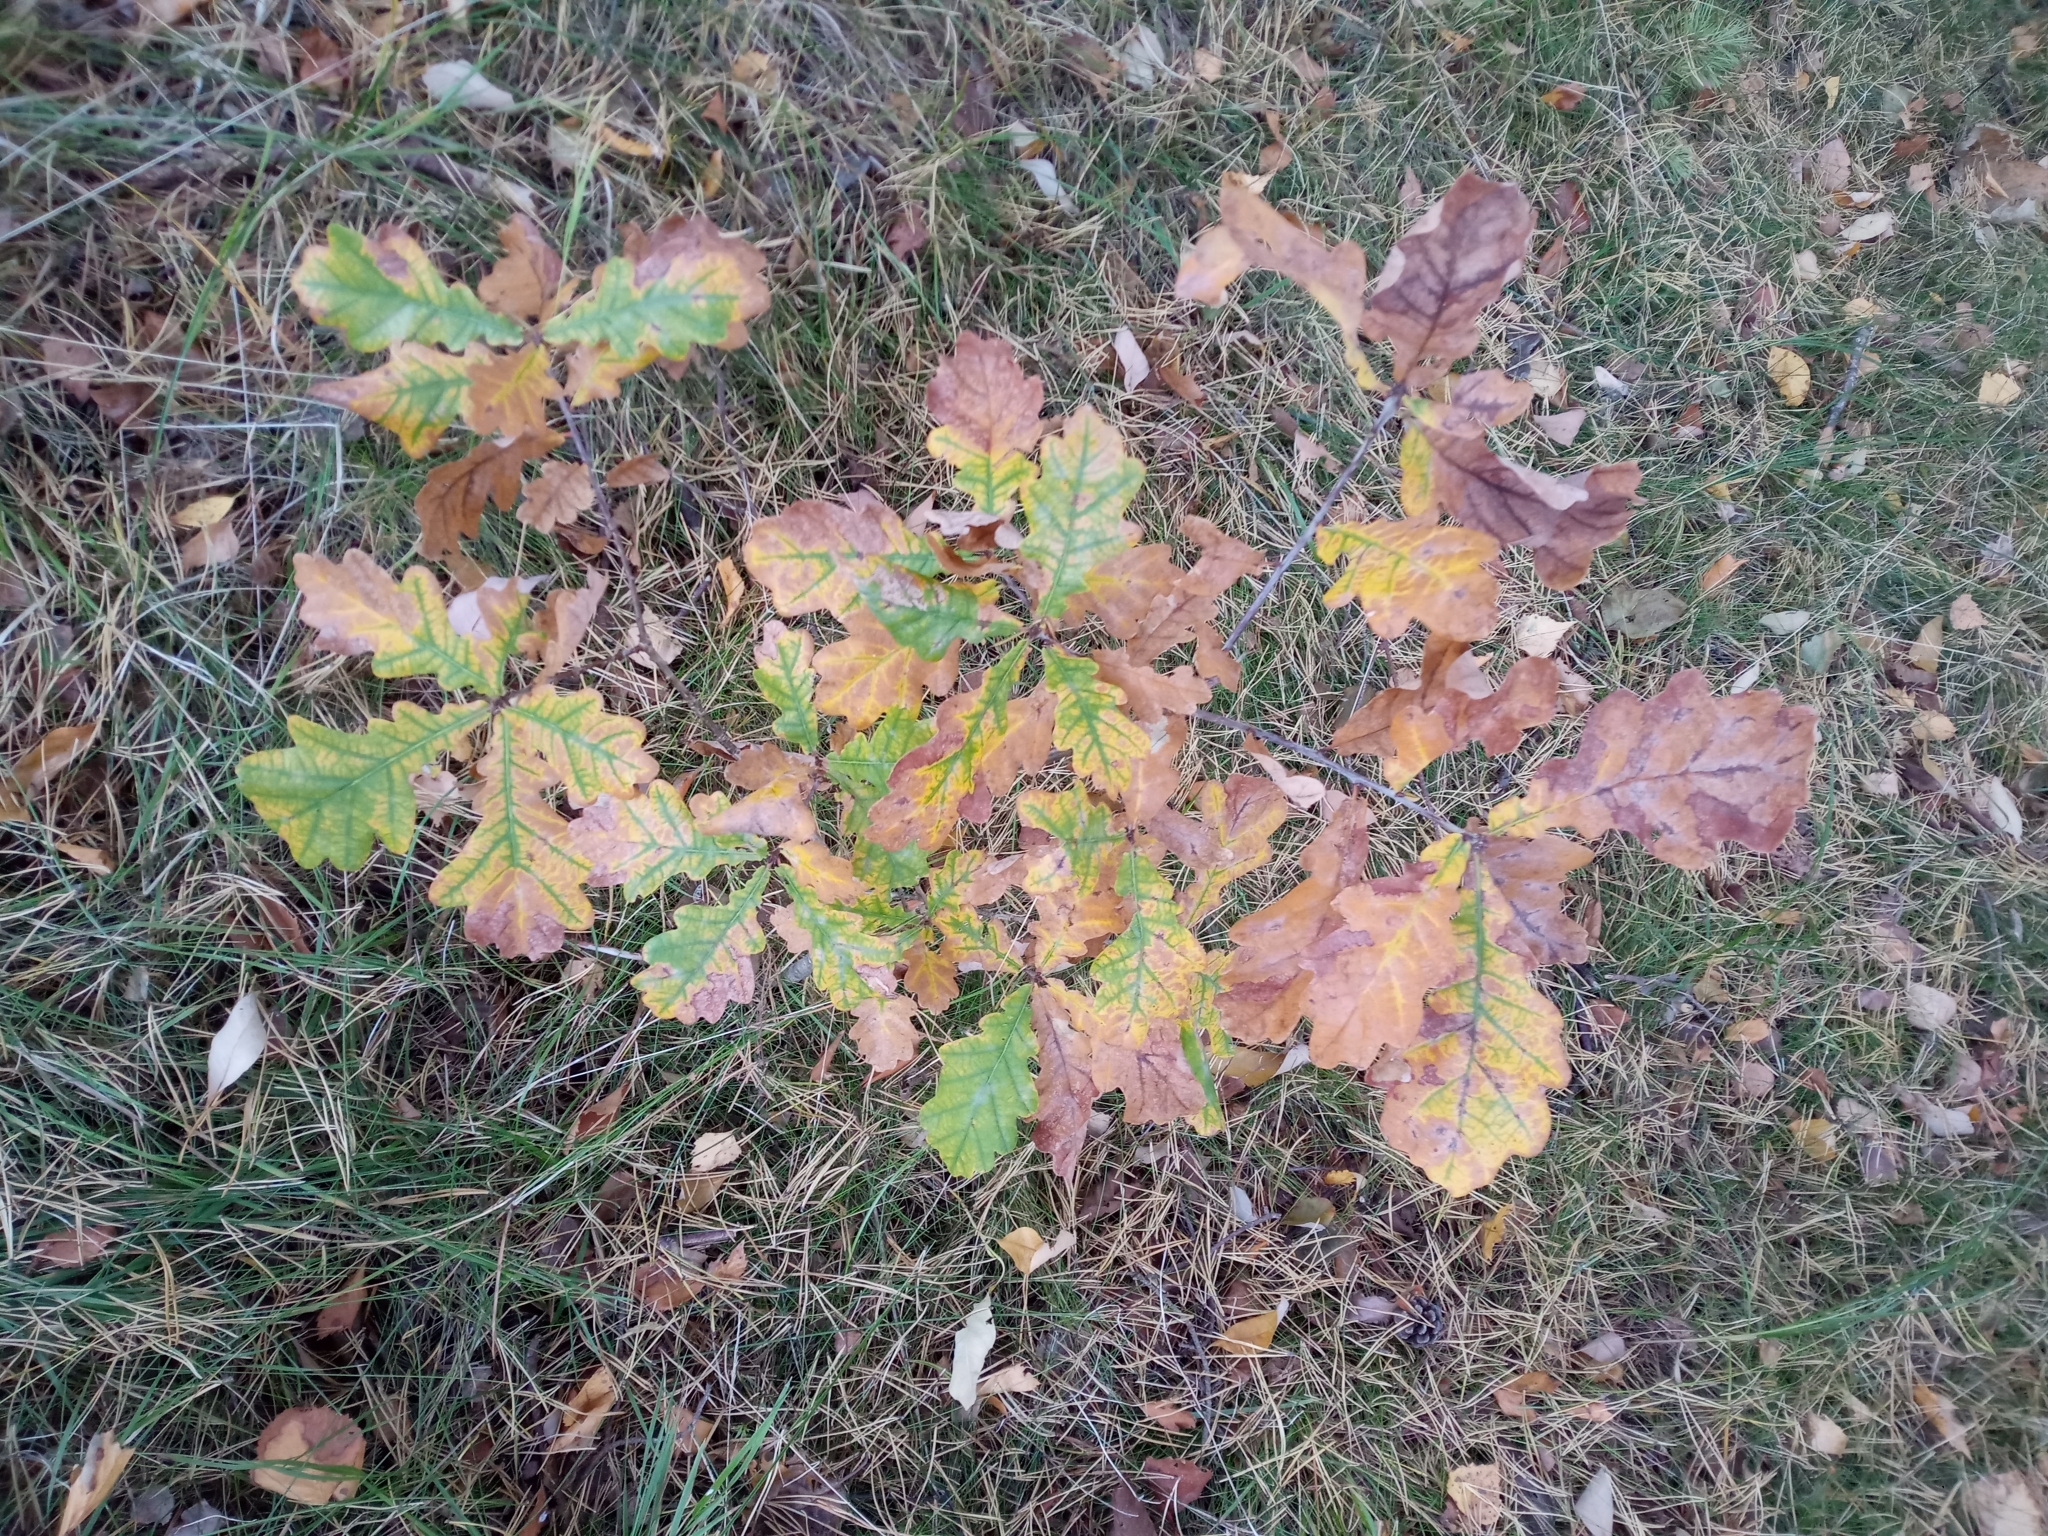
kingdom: Plantae
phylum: Tracheophyta
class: Magnoliopsida
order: Fagales
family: Fagaceae
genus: Quercus
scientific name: Quercus robur
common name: Pedunculate oak
